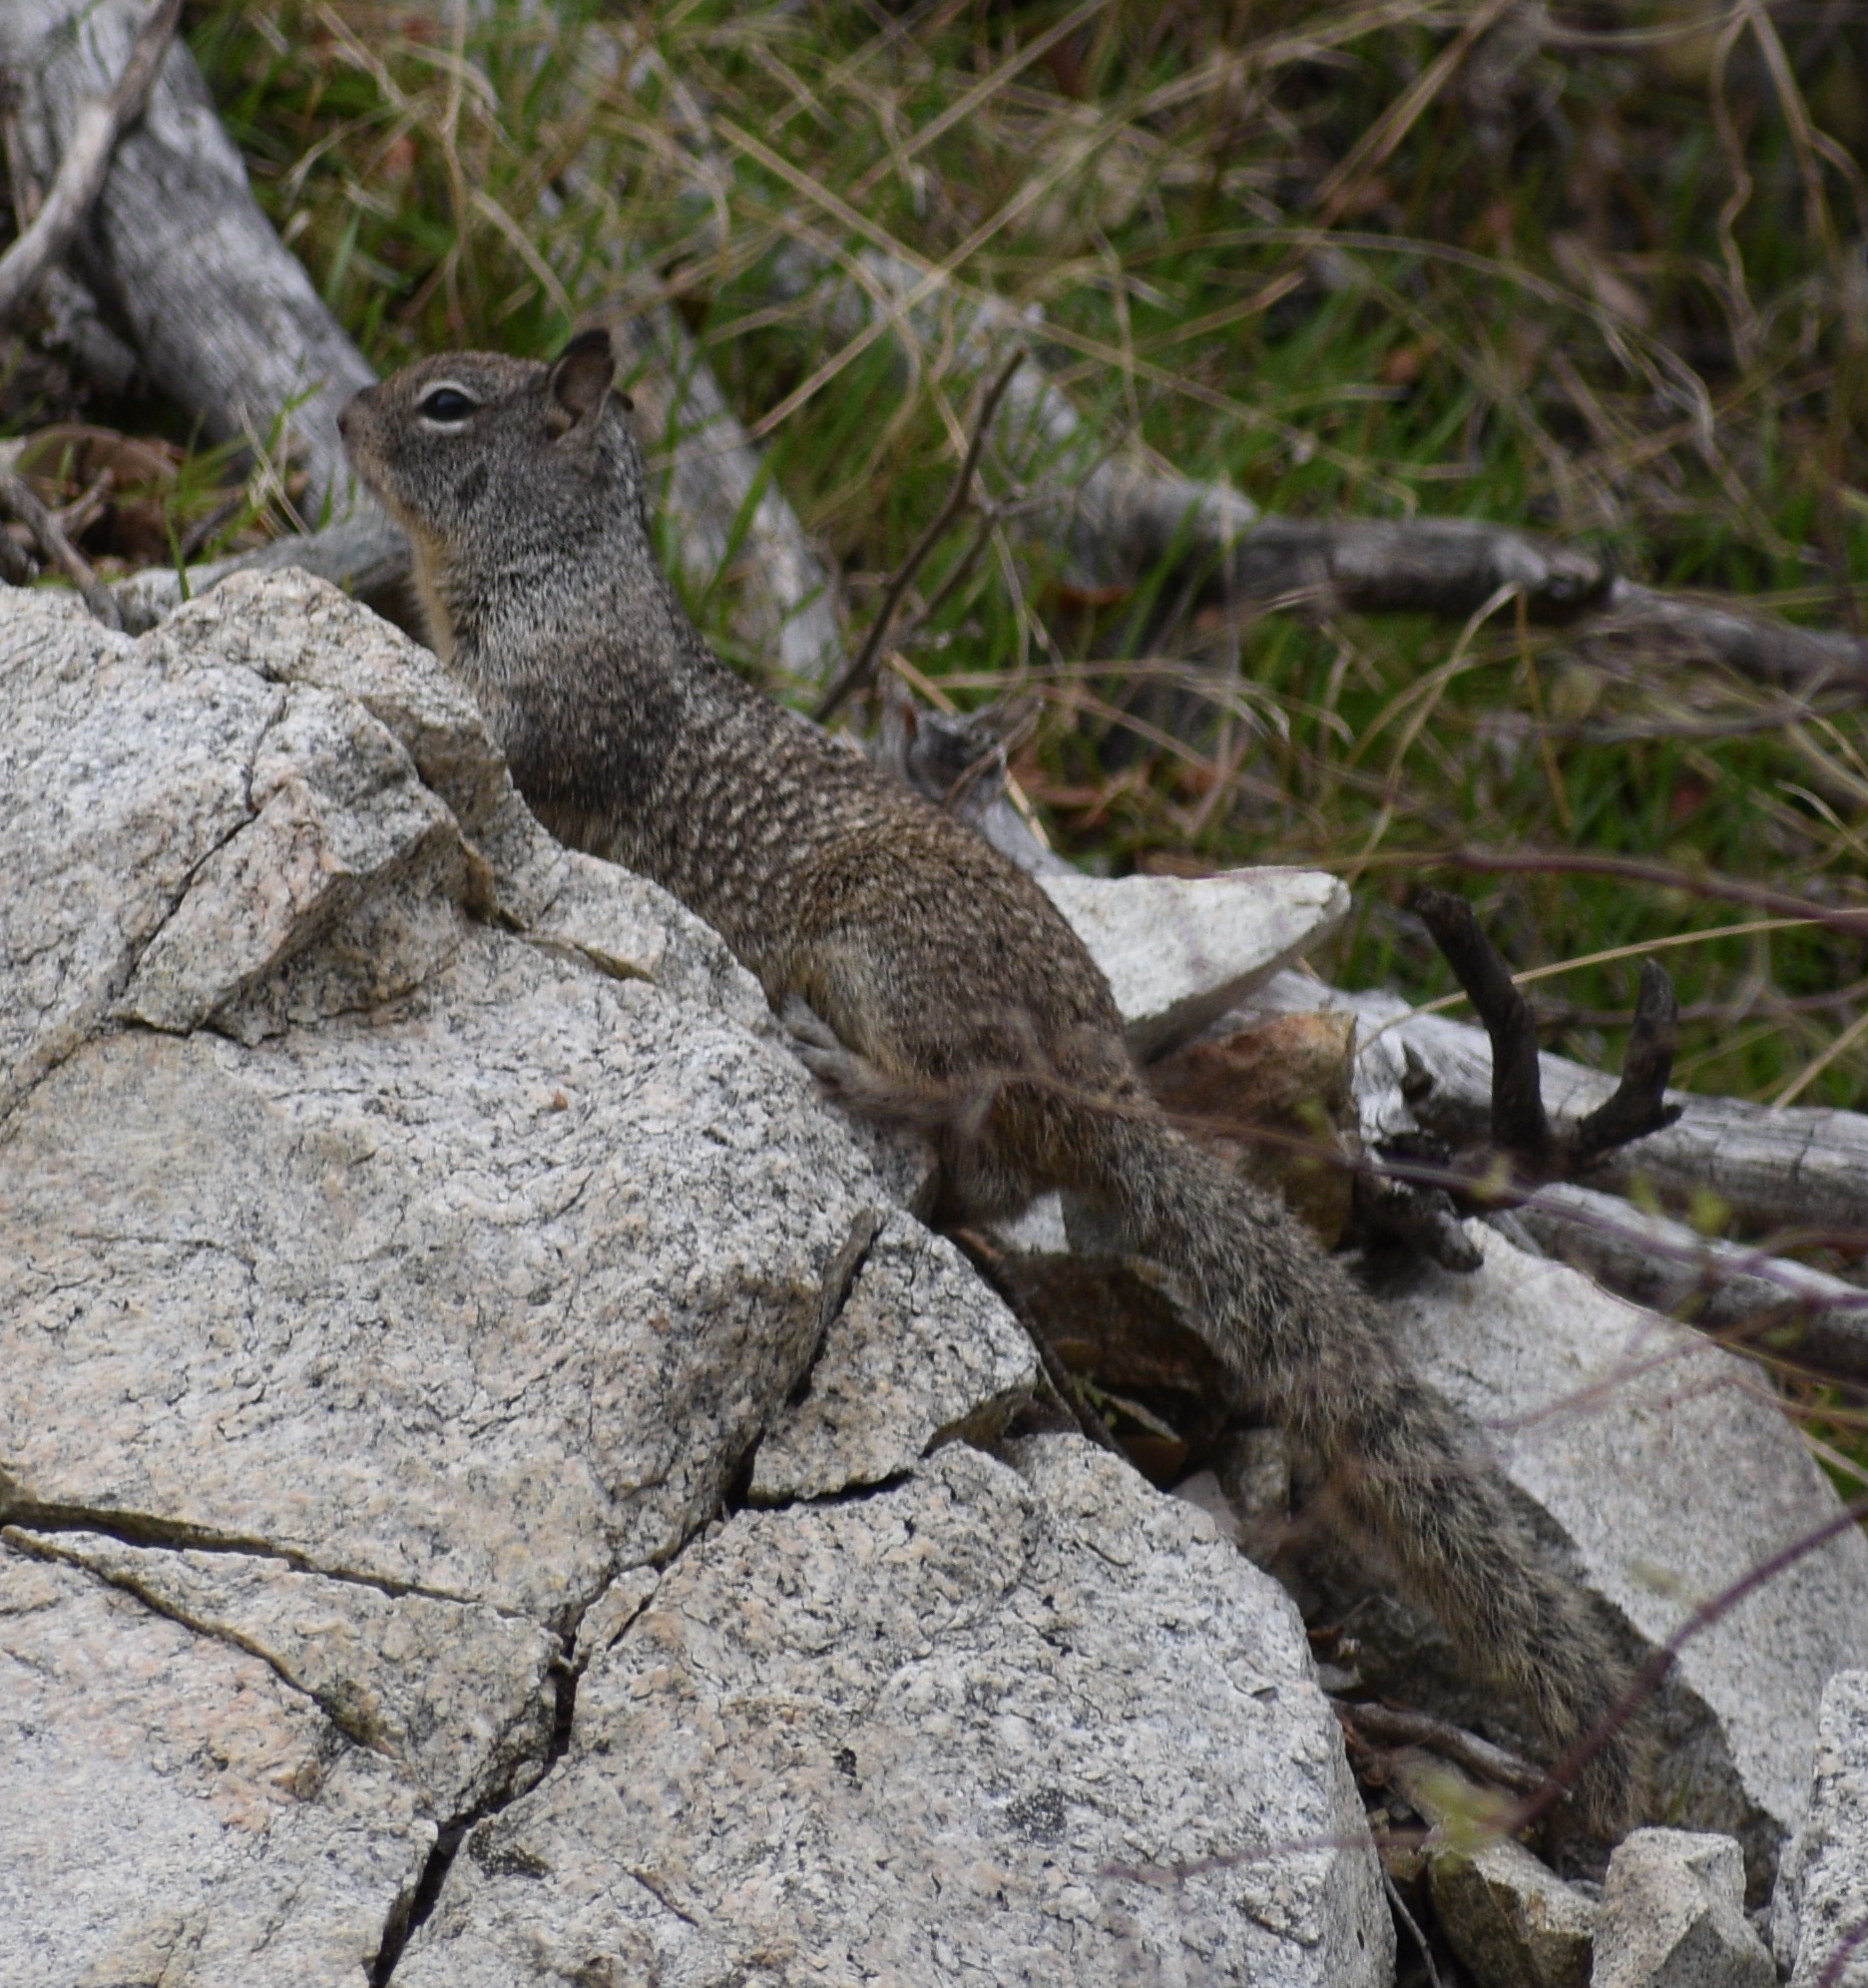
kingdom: Animalia
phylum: Chordata
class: Mammalia
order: Rodentia
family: Sciuridae
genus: Otospermophilus
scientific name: Otospermophilus beecheyi
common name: California ground squirrel
